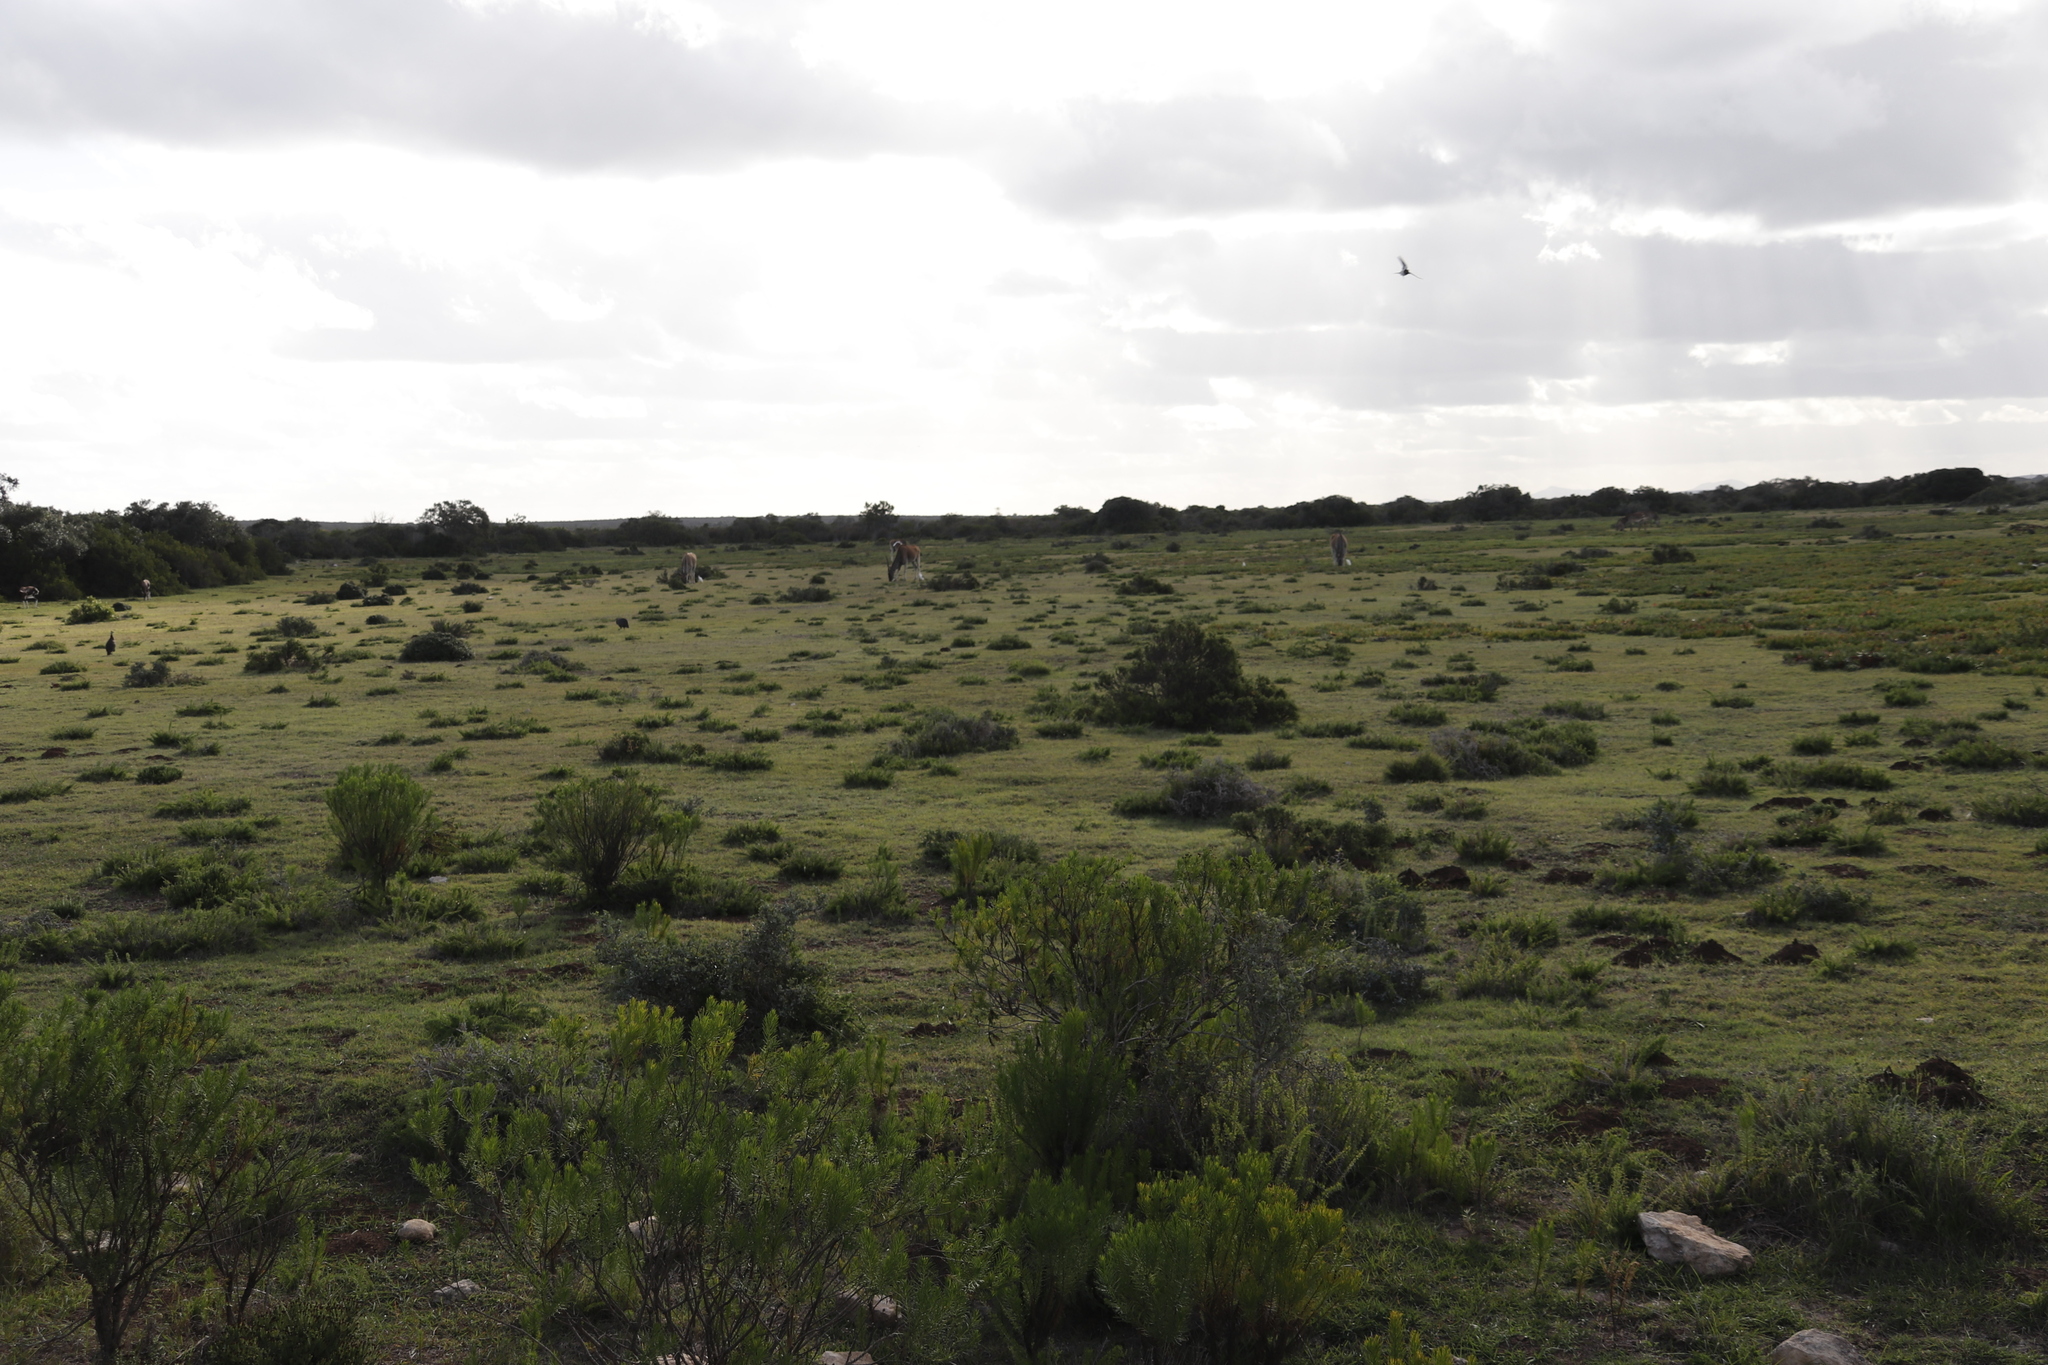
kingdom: Animalia
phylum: Chordata
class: Mammalia
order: Artiodactyla
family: Bovidae
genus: Taurotragus
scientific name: Taurotragus oryx
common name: Common eland
